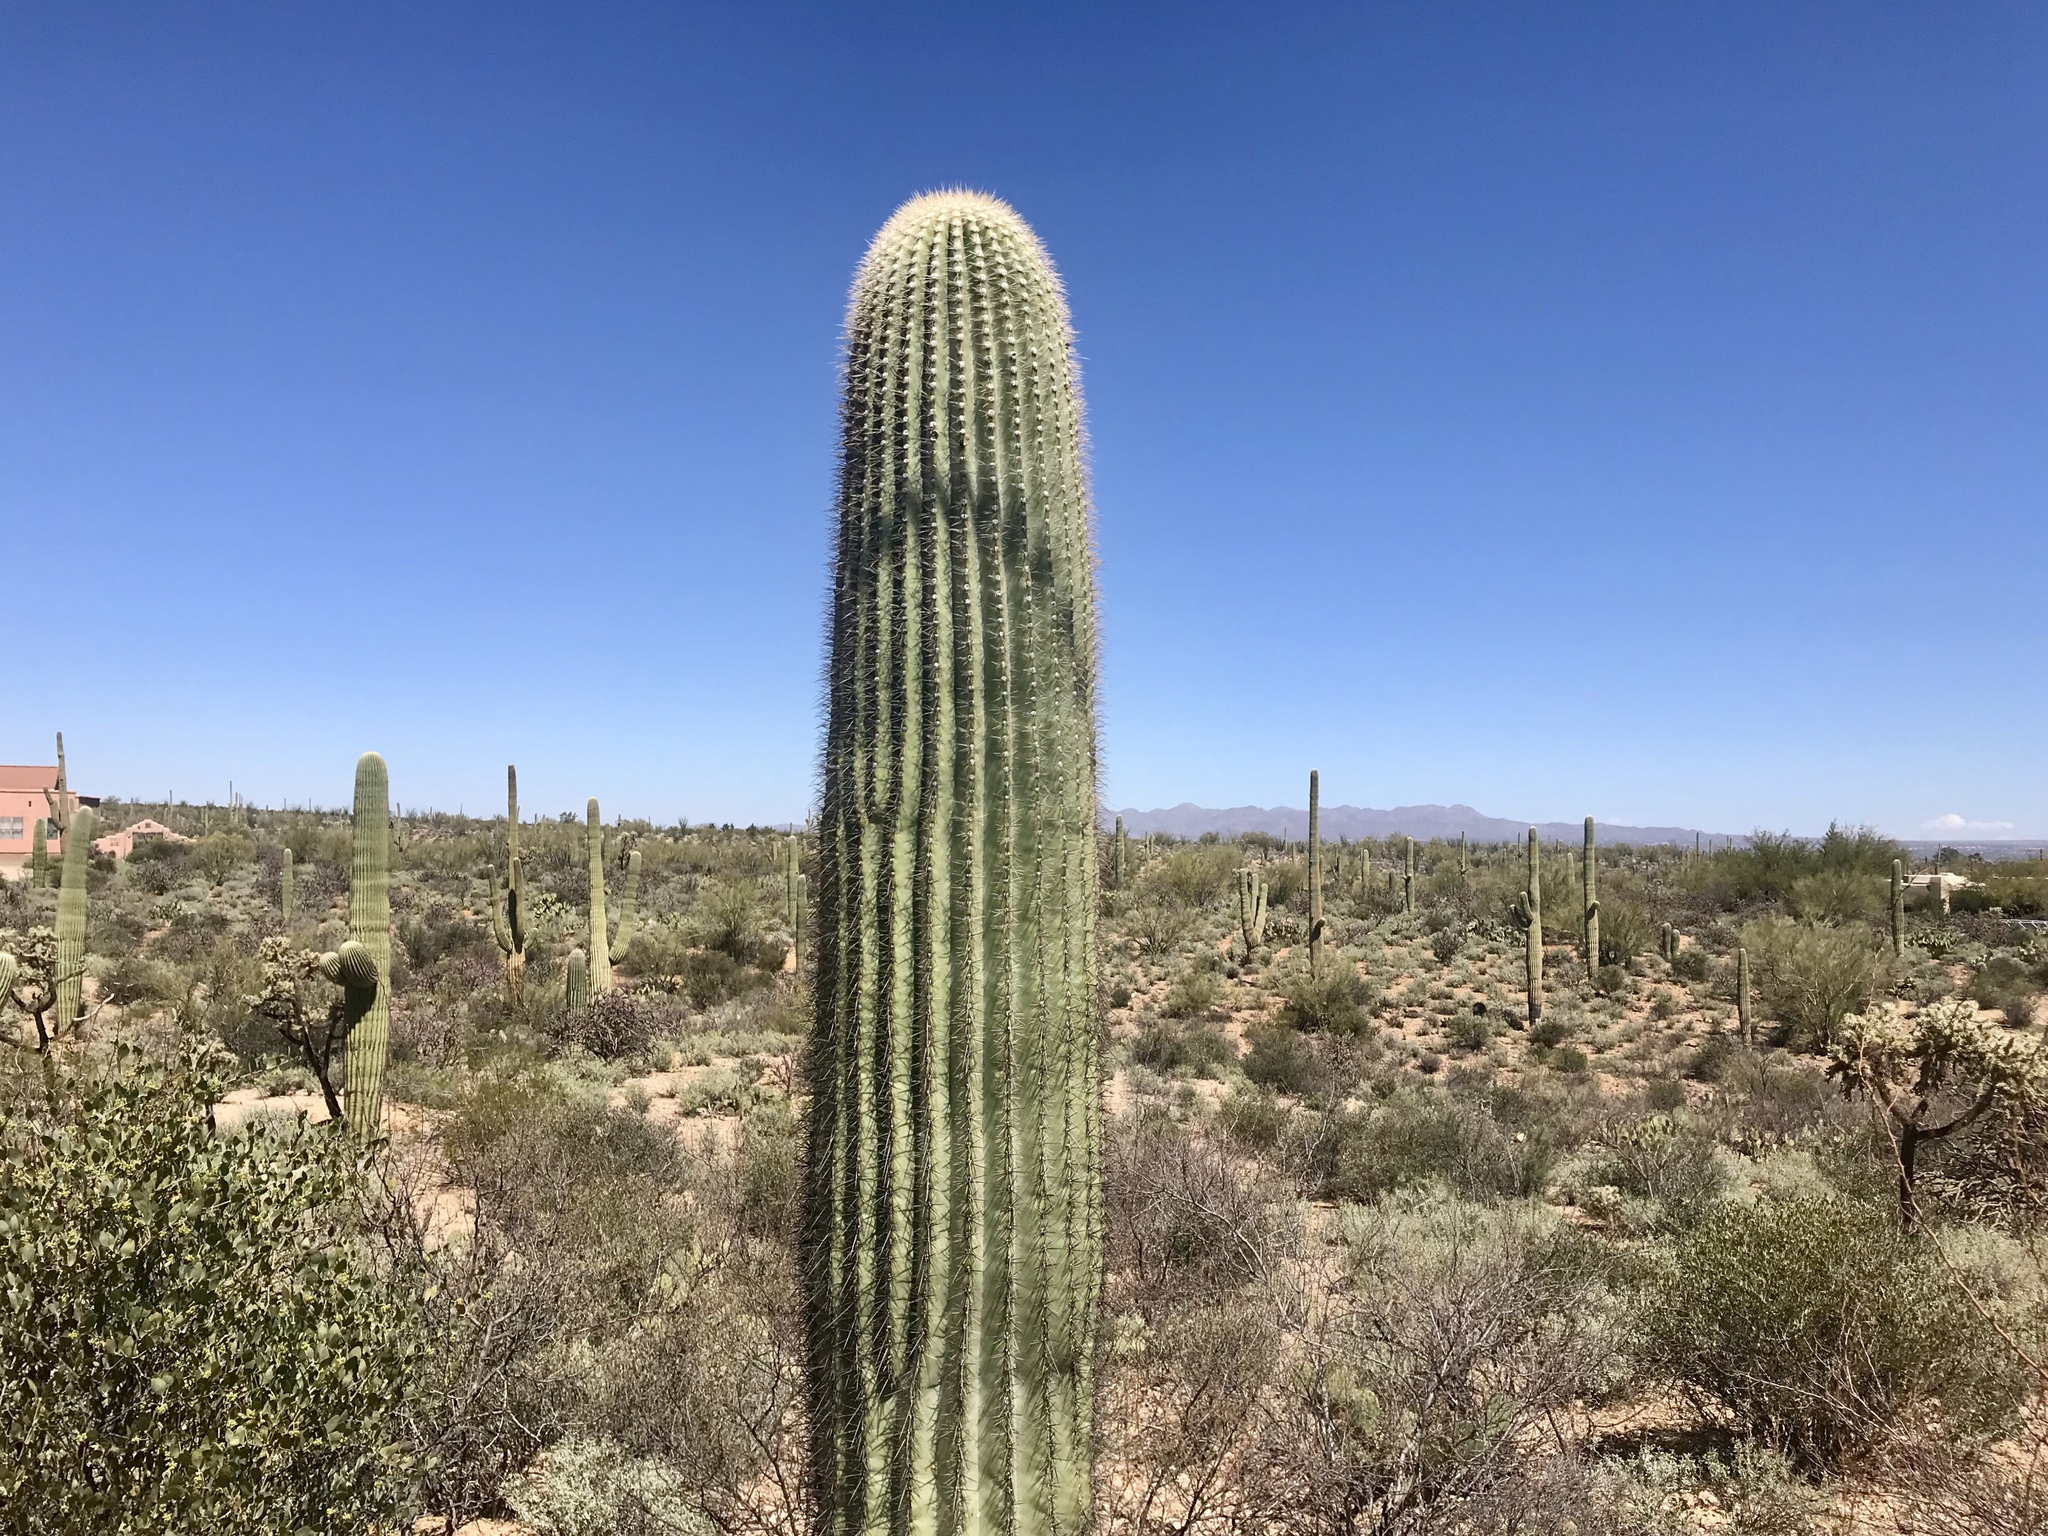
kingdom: Plantae
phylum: Tracheophyta
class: Magnoliopsida
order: Caryophyllales
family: Cactaceae
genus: Carnegiea
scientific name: Carnegiea gigantea
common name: Saguaro
